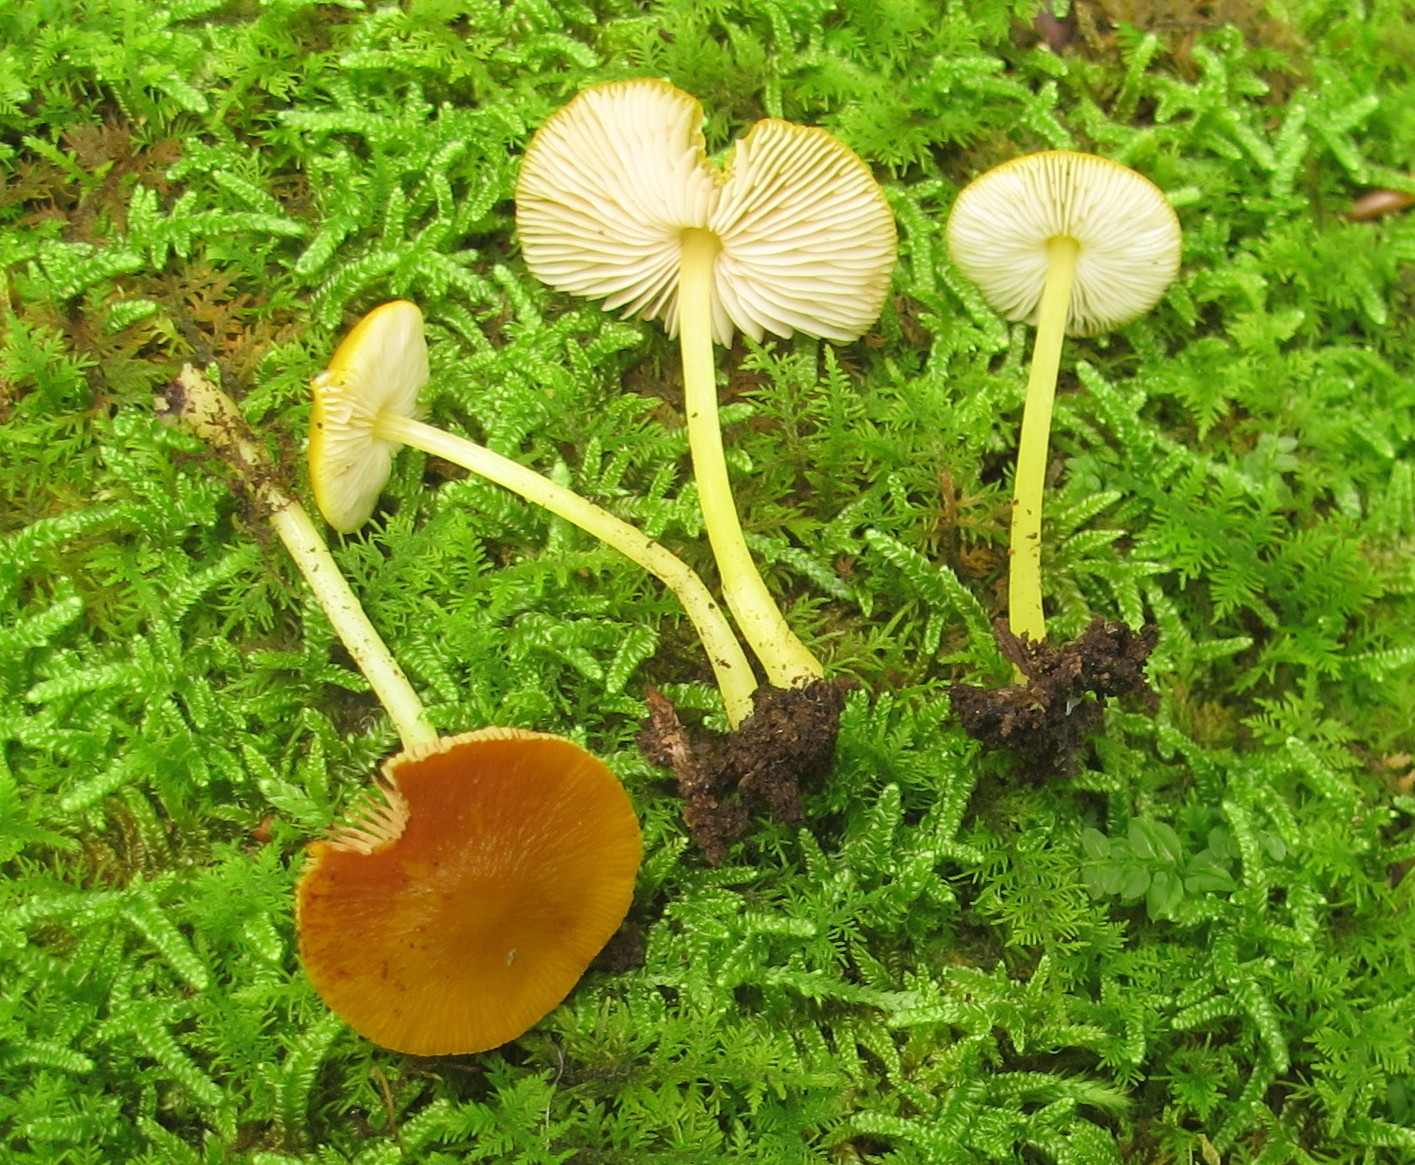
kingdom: Fungi
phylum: Basidiomycota
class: Agaricomycetes
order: Agaricales
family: Pluteaceae
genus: Pluteus
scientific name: Pluteus chrysophlebius
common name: Yellow deer mushroom
